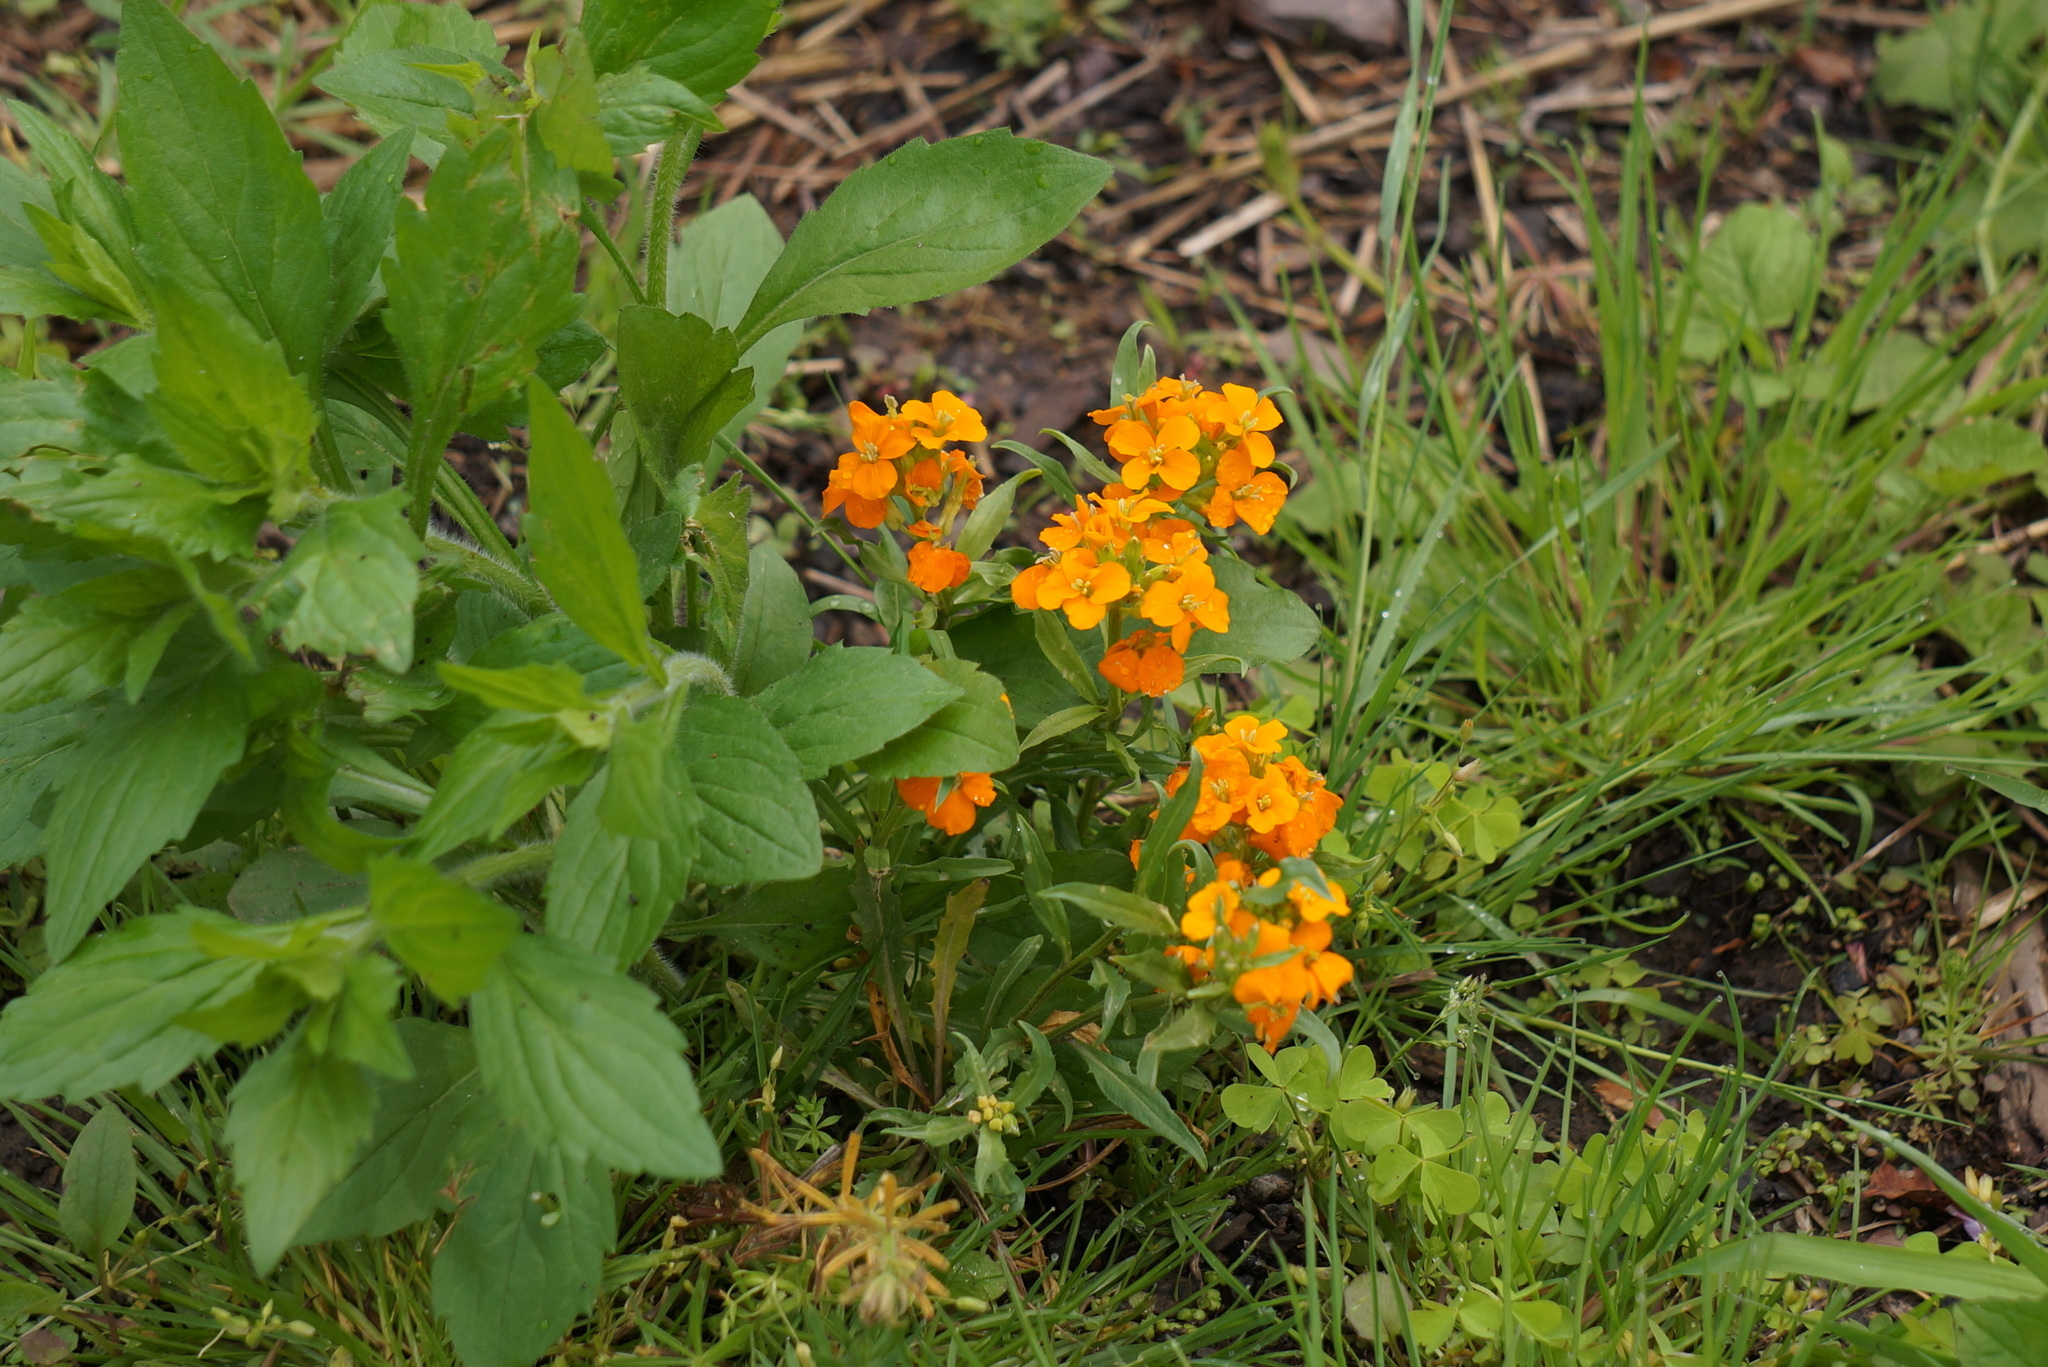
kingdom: Plantae
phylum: Tracheophyta
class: Magnoliopsida
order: Brassicales
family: Brassicaceae
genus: Erysimum
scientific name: Erysimum capitatum
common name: Western wallflower
